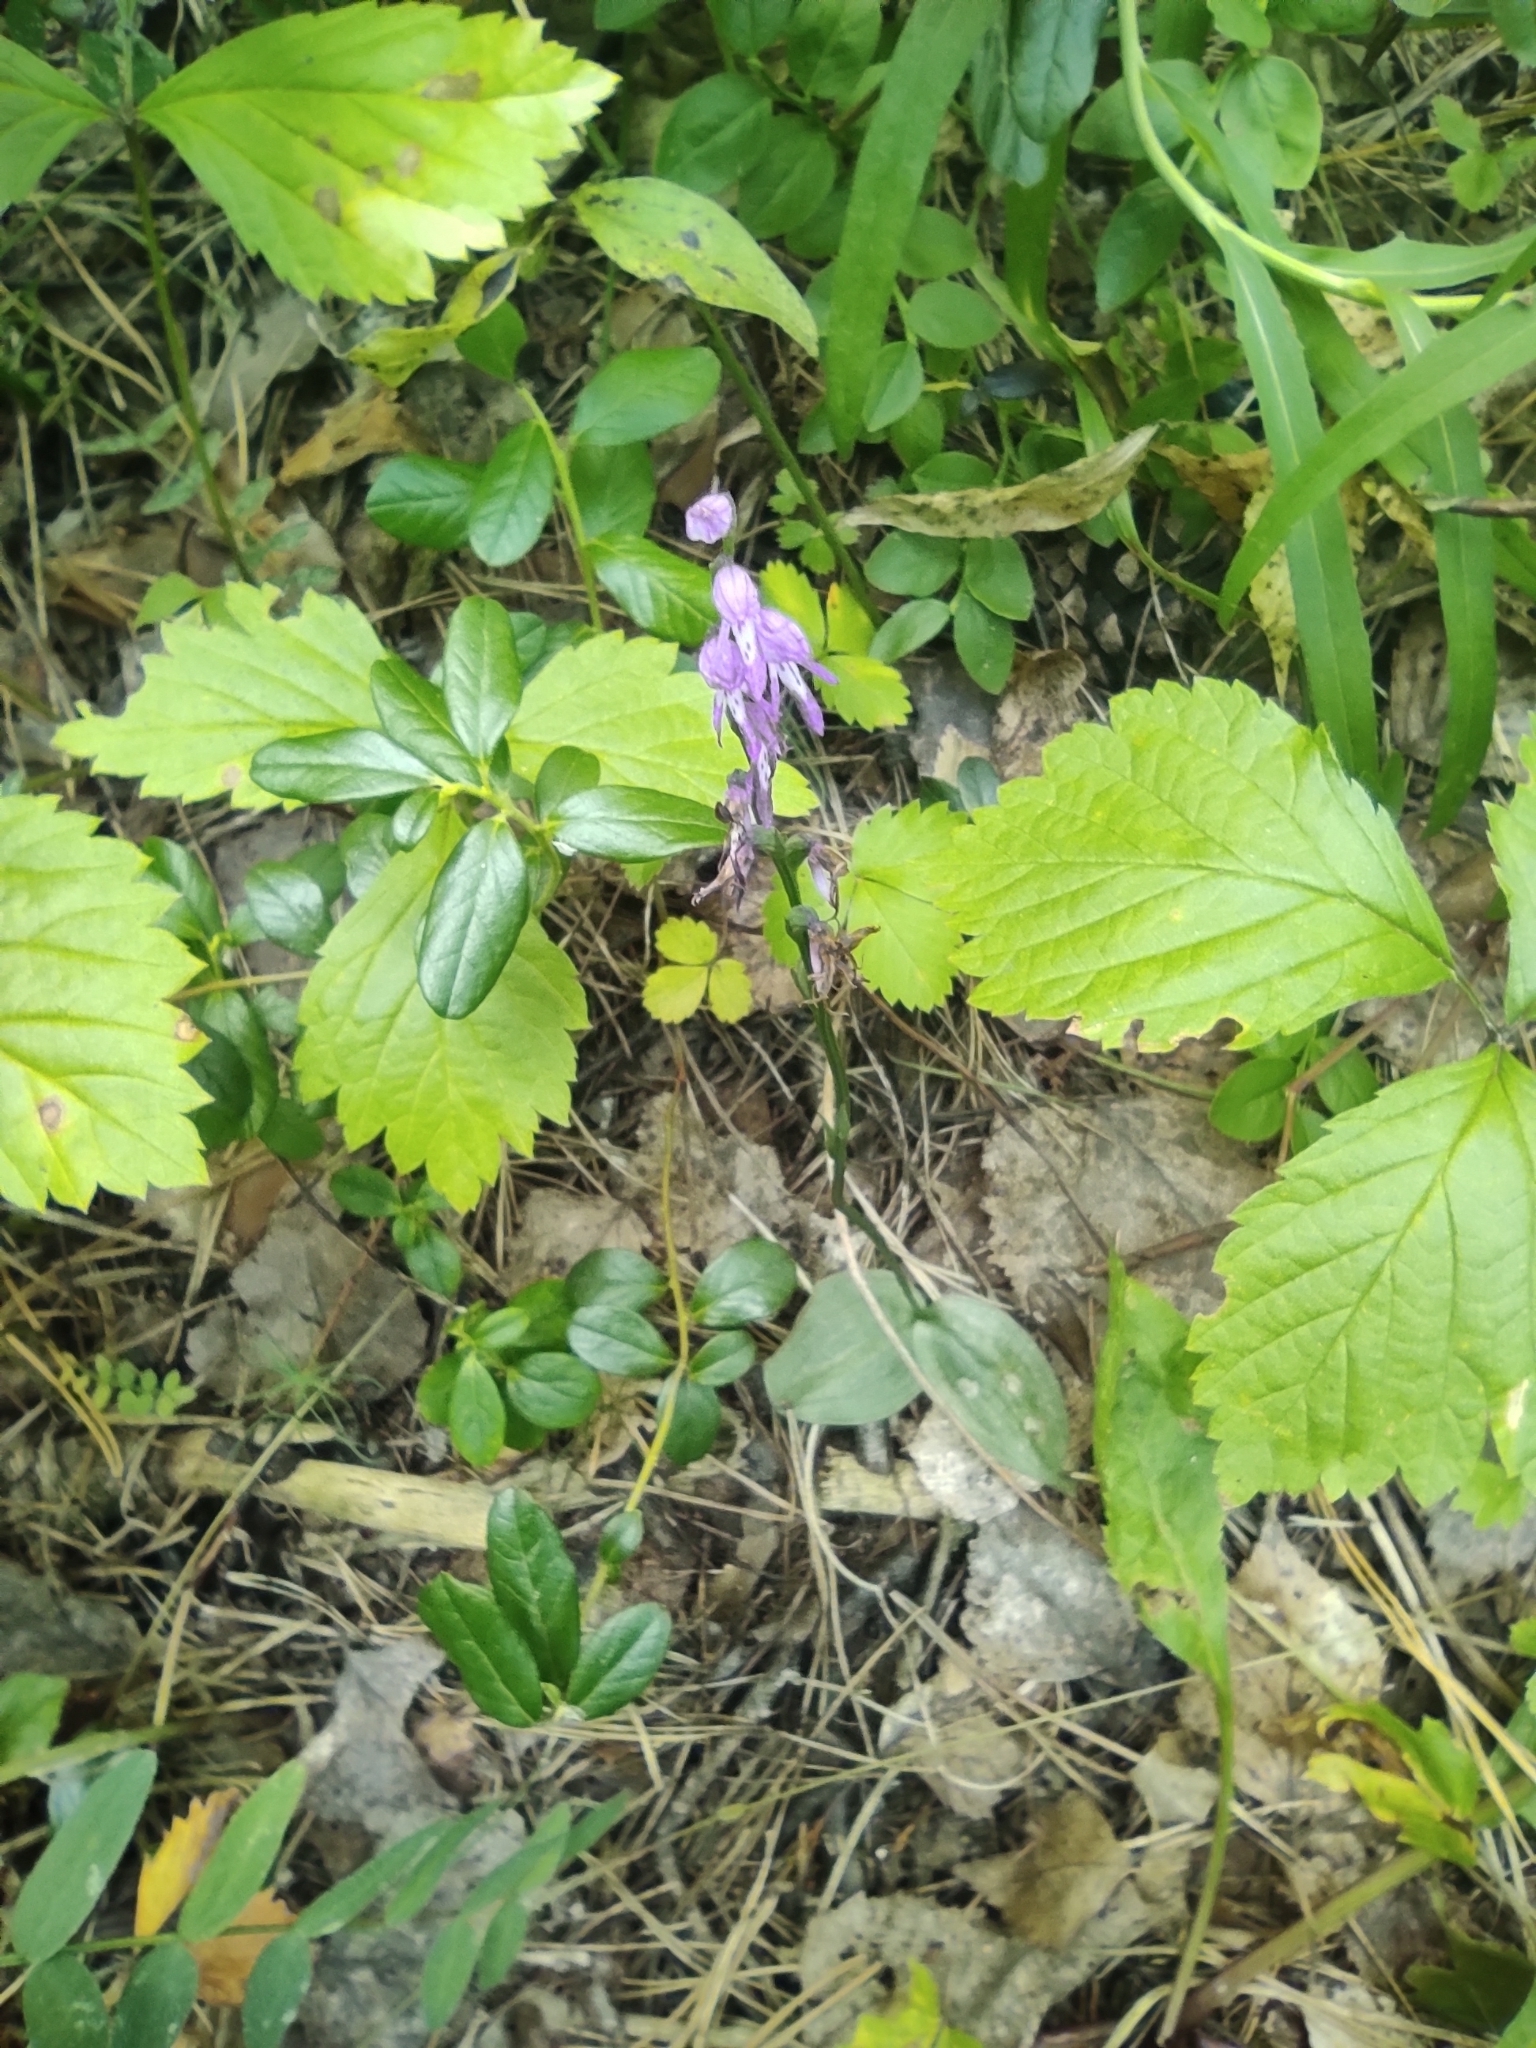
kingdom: Plantae
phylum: Tracheophyta
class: Magnoliopsida
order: Rosales
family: Rosaceae
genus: Rubus
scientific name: Rubus saxatilis
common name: Stone bramble
